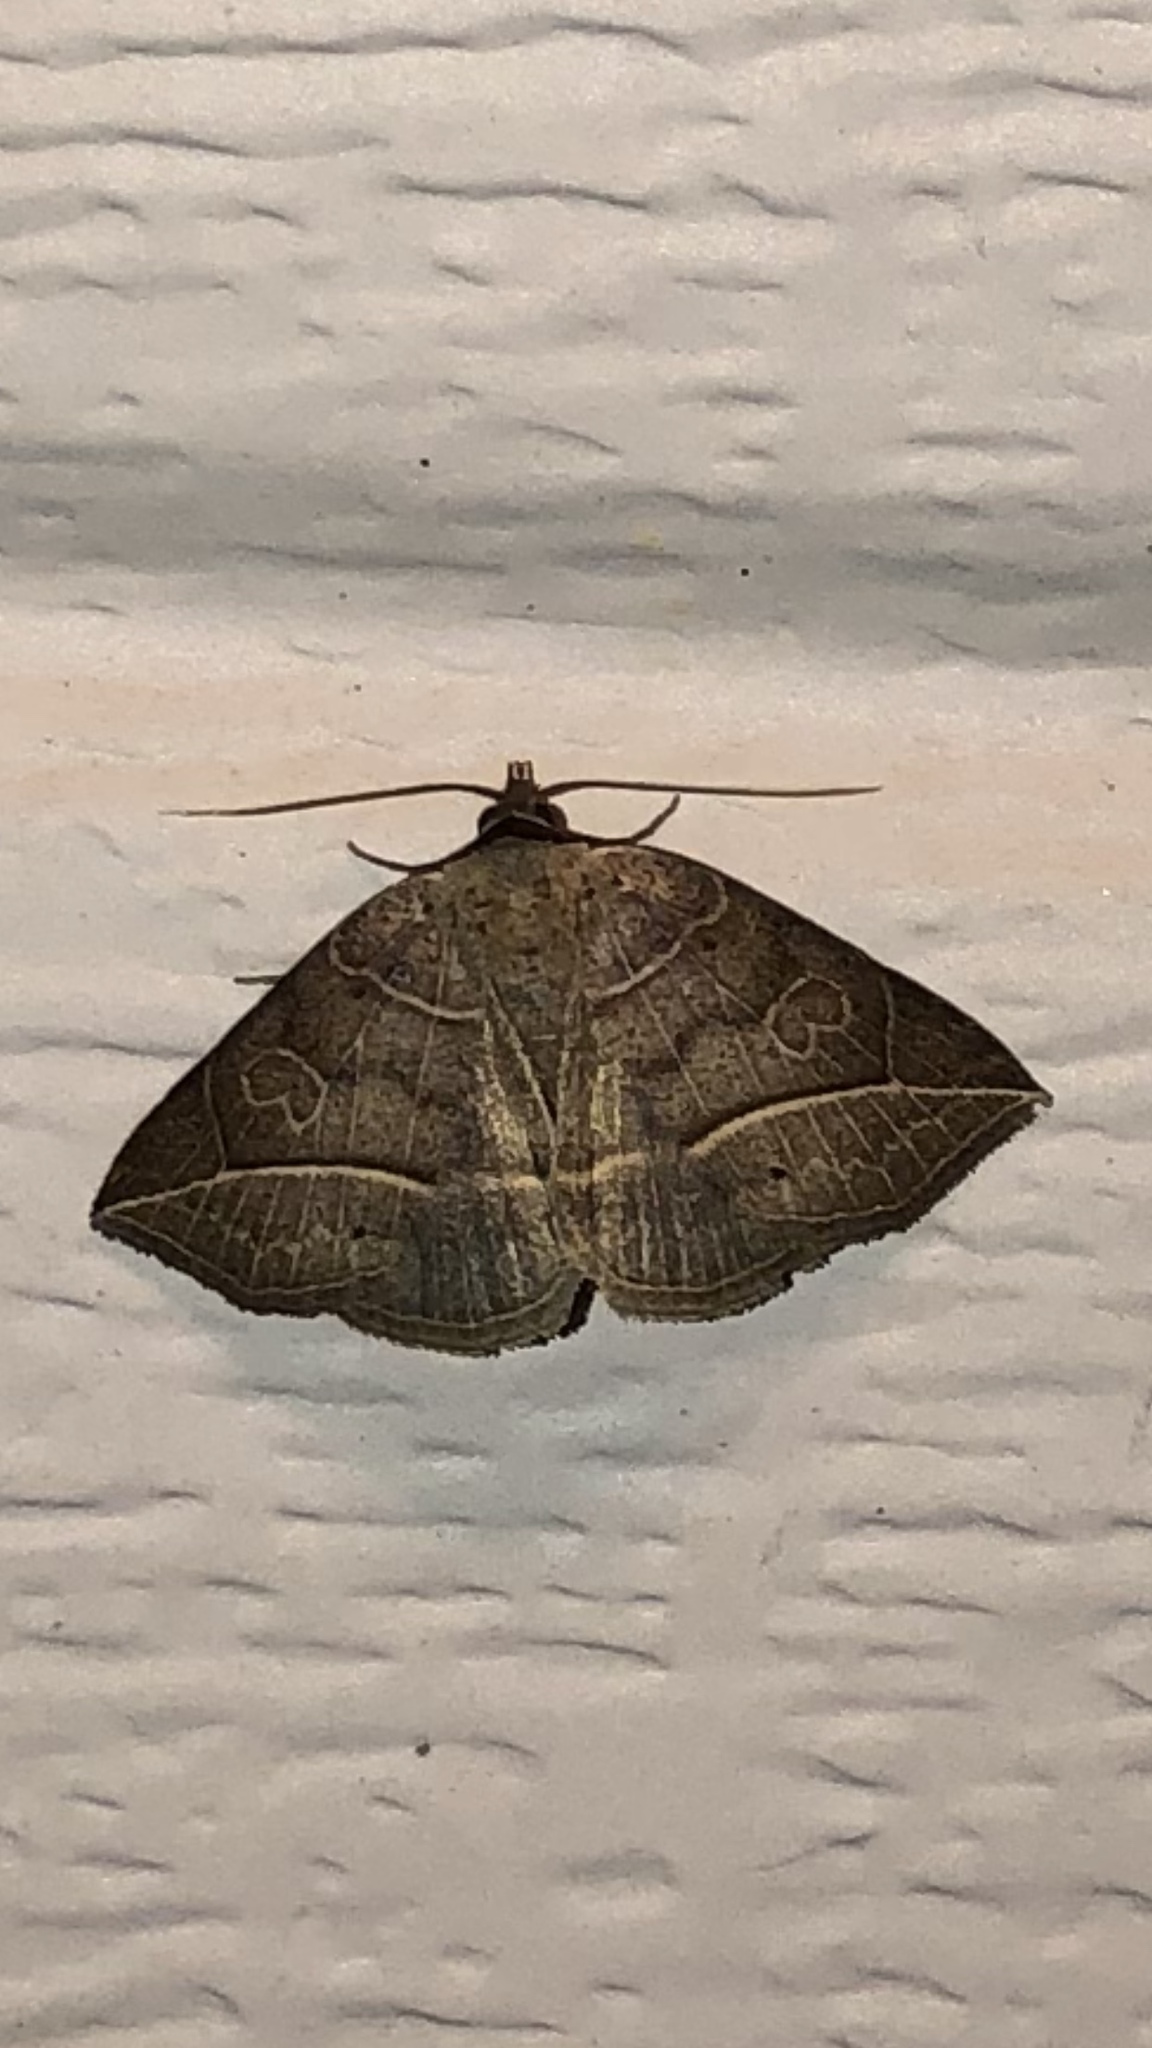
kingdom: Animalia
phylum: Arthropoda
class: Insecta
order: Lepidoptera
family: Erebidae
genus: Isogona
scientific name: Isogona tenuis
